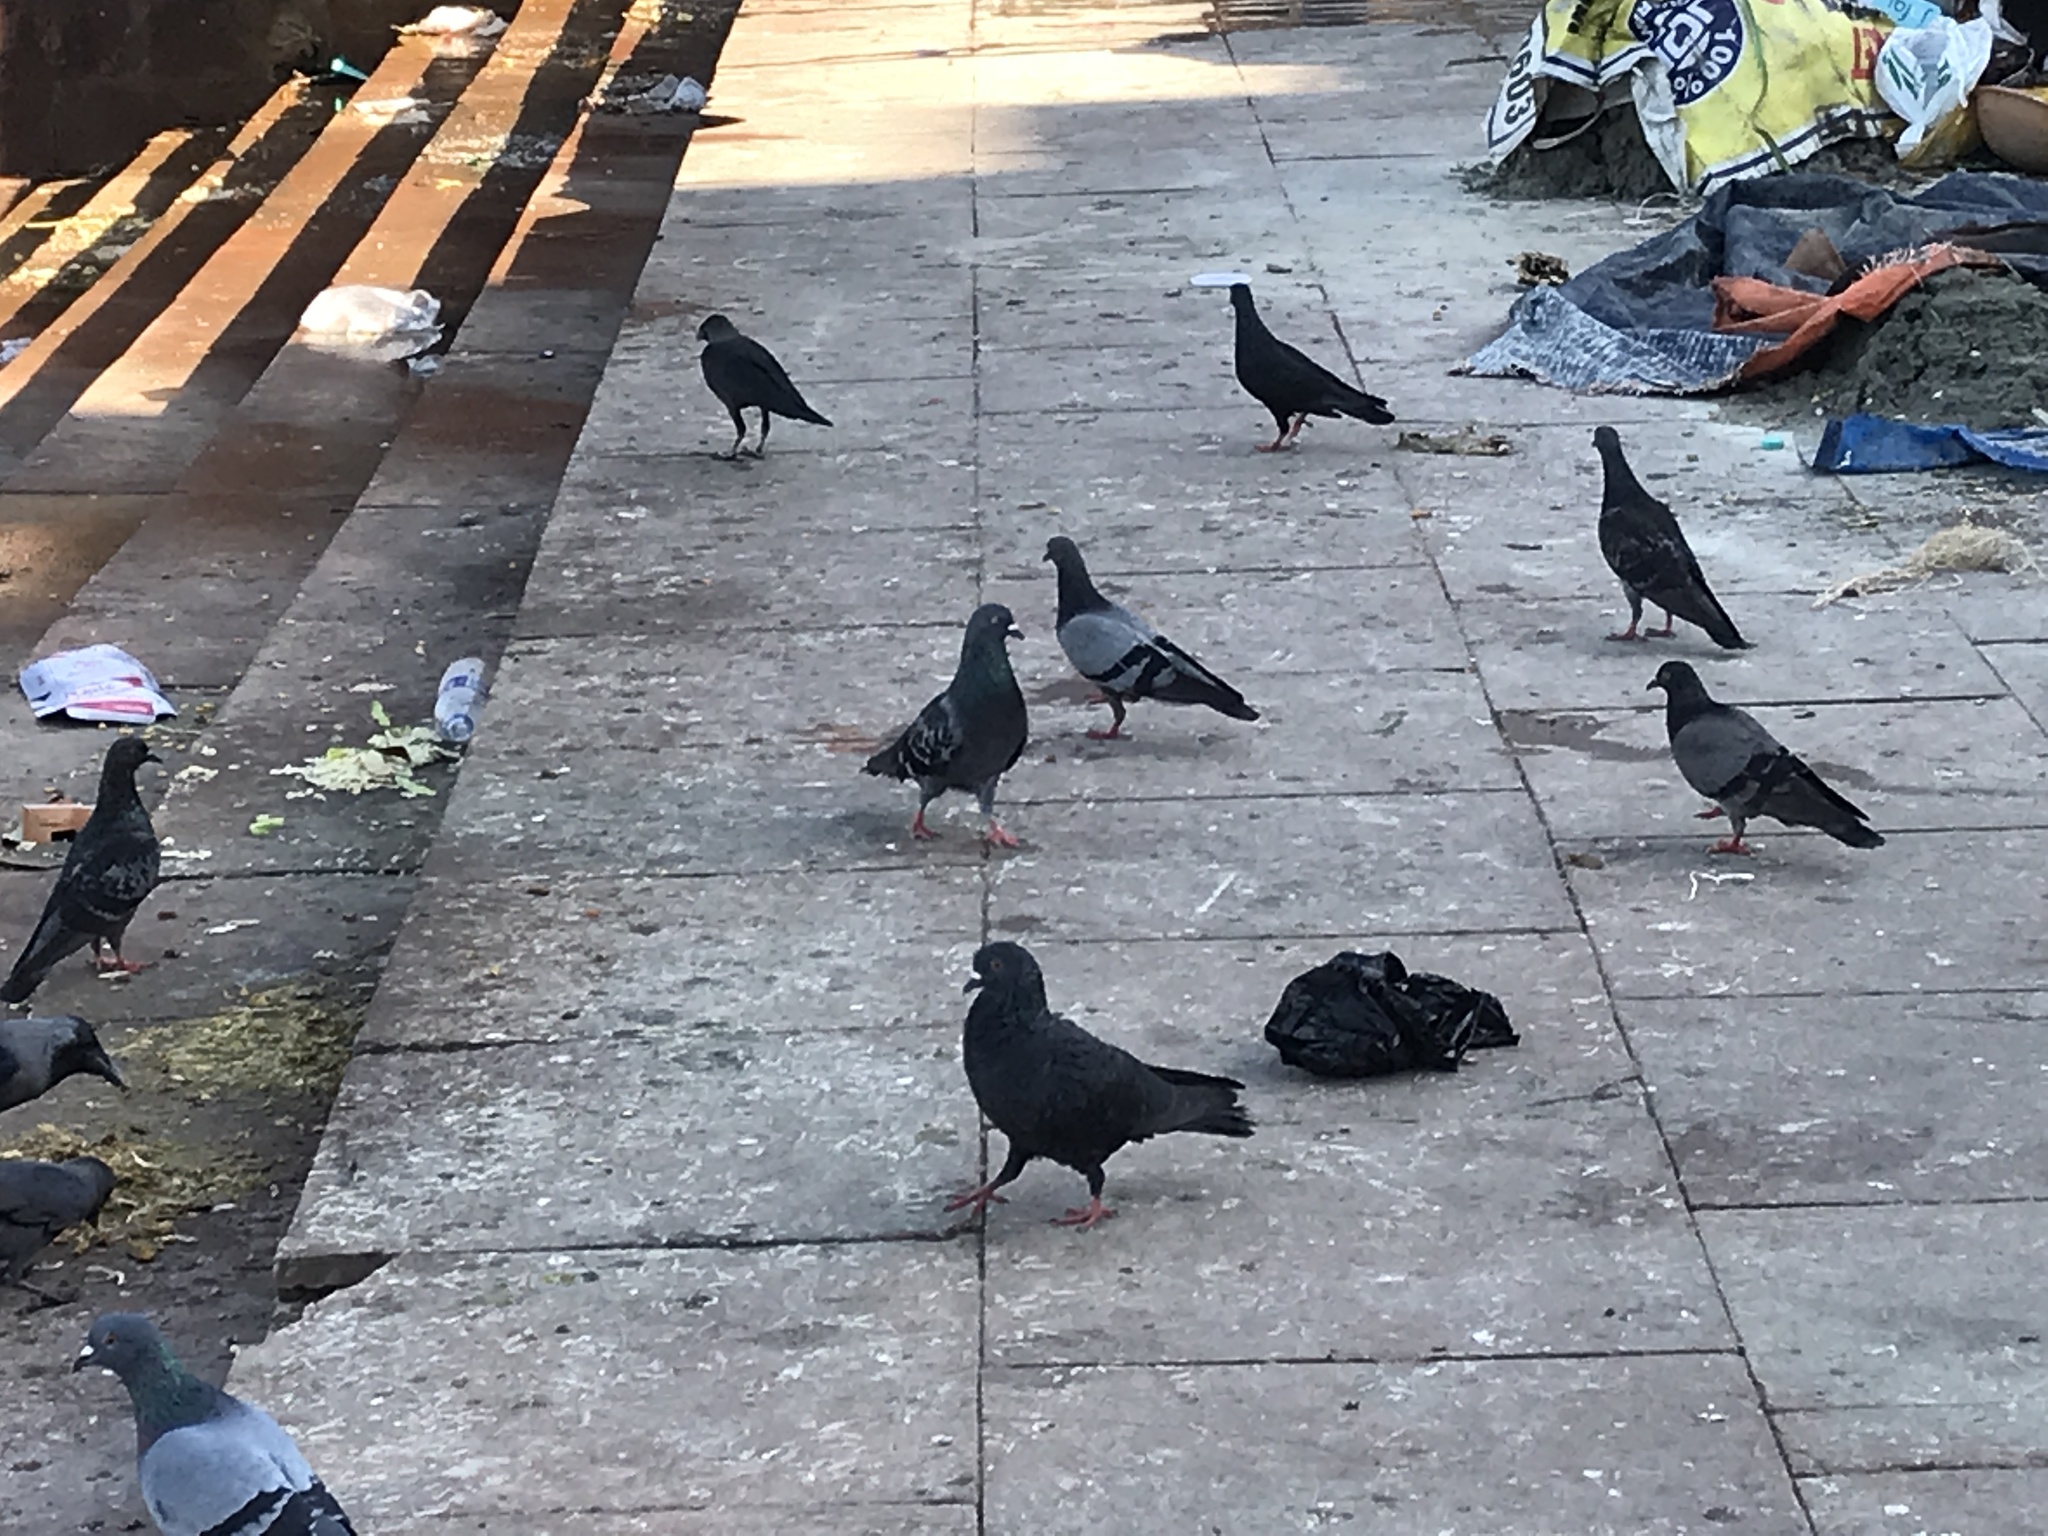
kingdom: Animalia
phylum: Chordata
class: Aves
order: Columbiformes
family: Columbidae
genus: Columba
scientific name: Columba livia
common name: Rock pigeon
